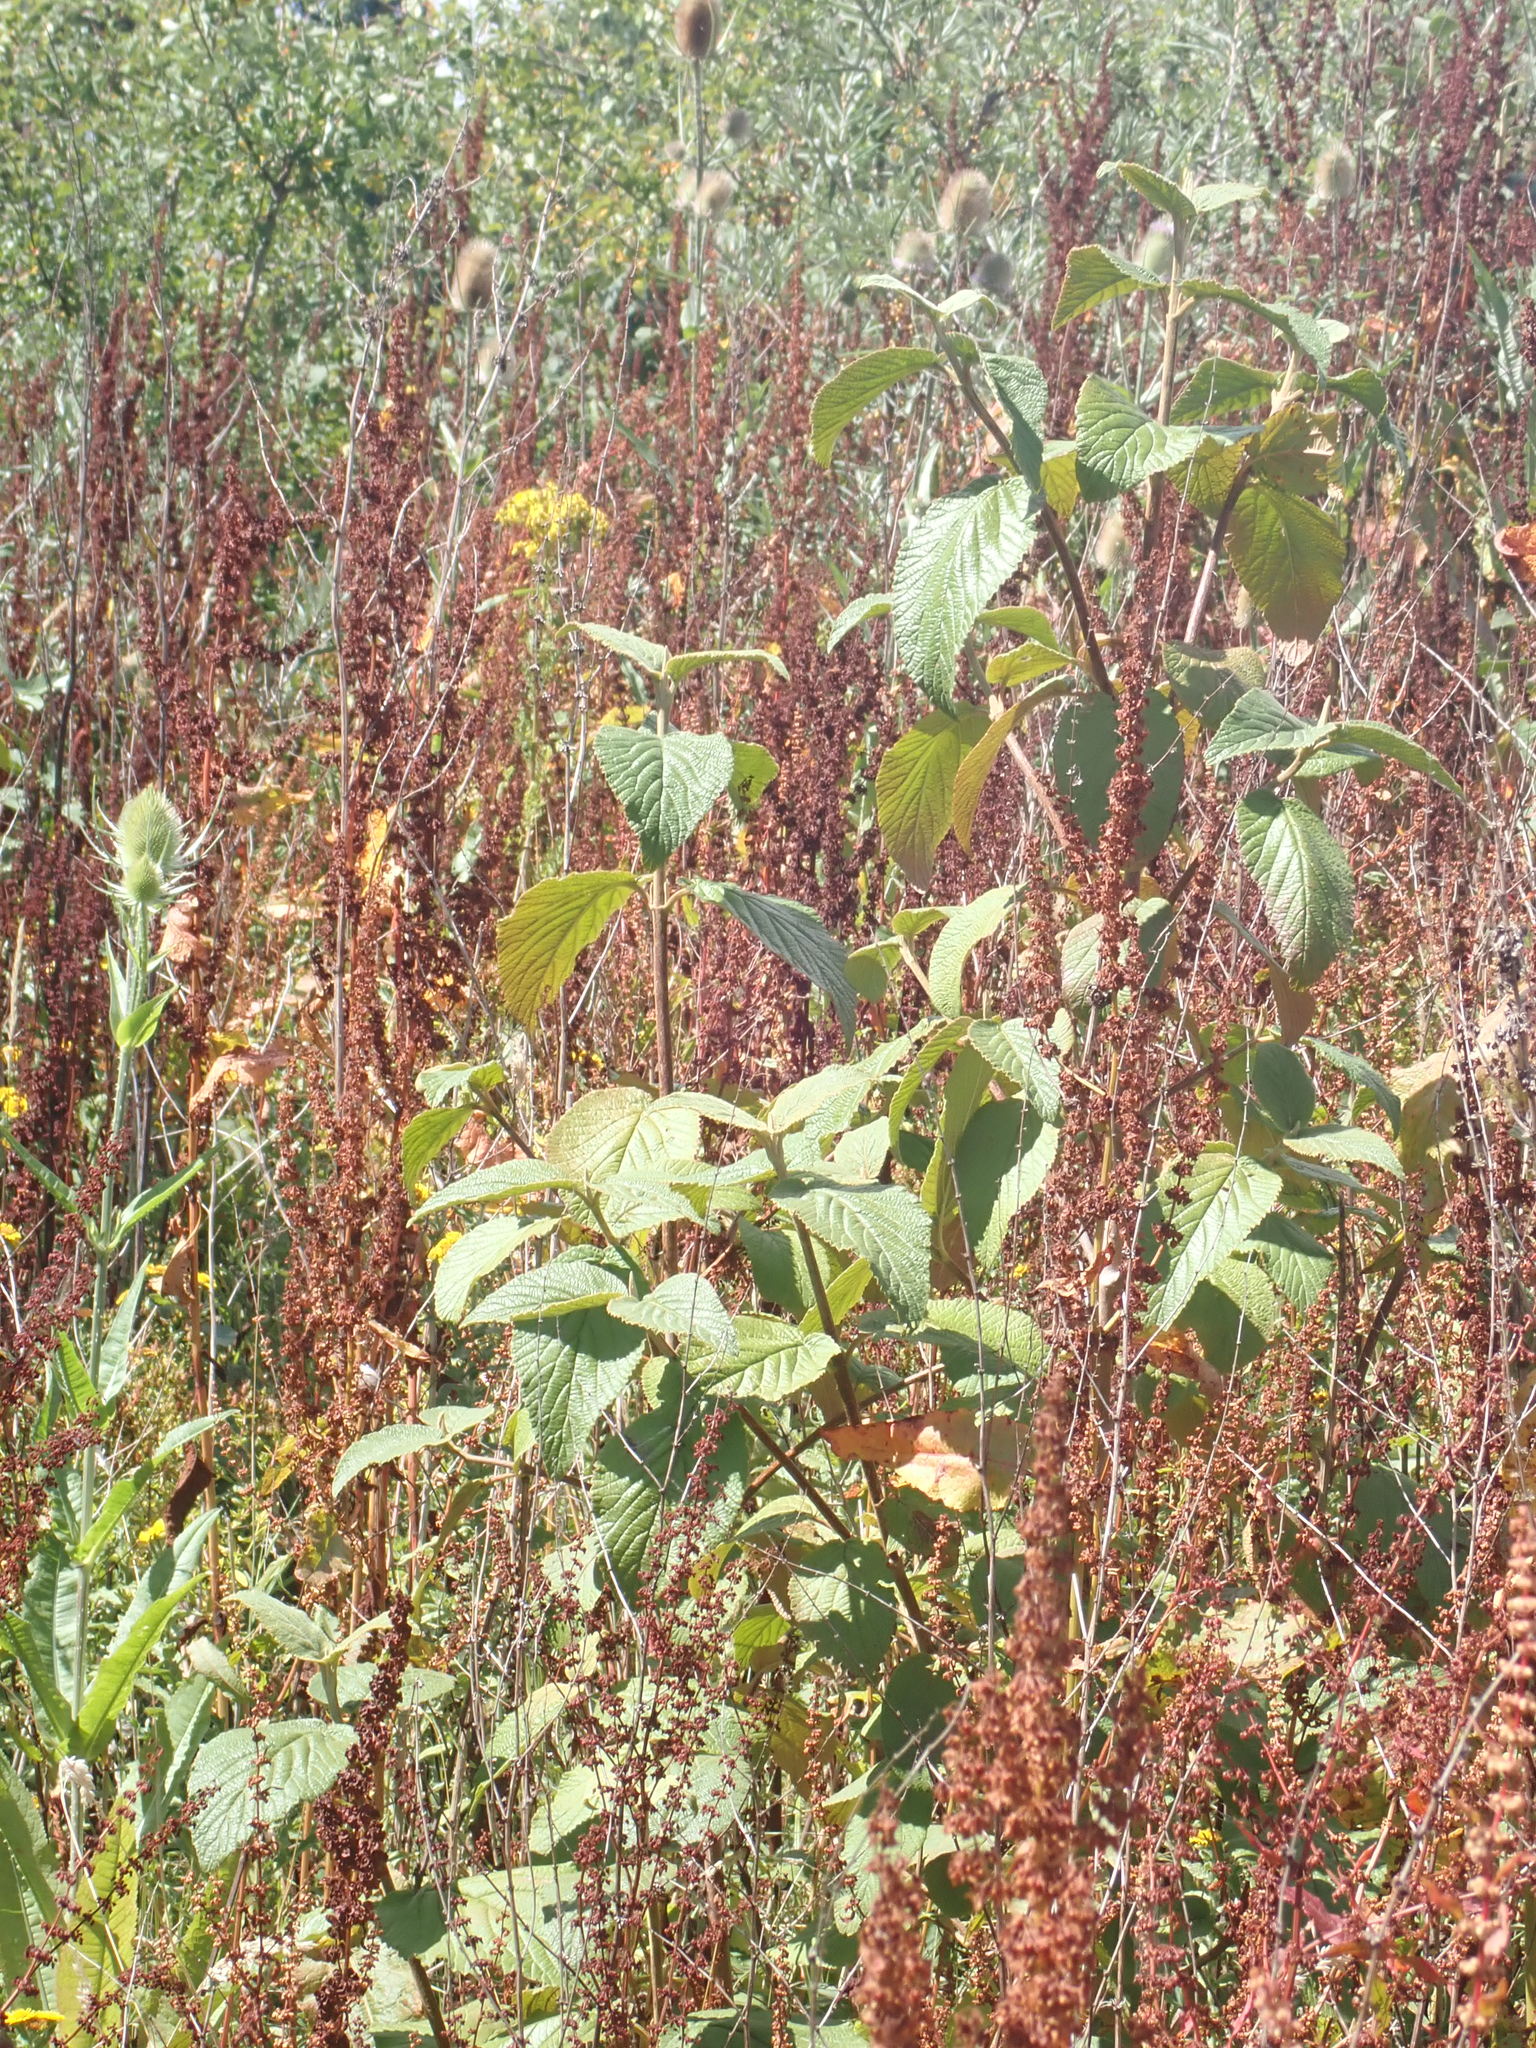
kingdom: Plantae
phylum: Tracheophyta
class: Magnoliopsida
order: Dipsacales
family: Viburnaceae
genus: Viburnum
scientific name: Viburnum lantana
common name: Wayfaring tree
